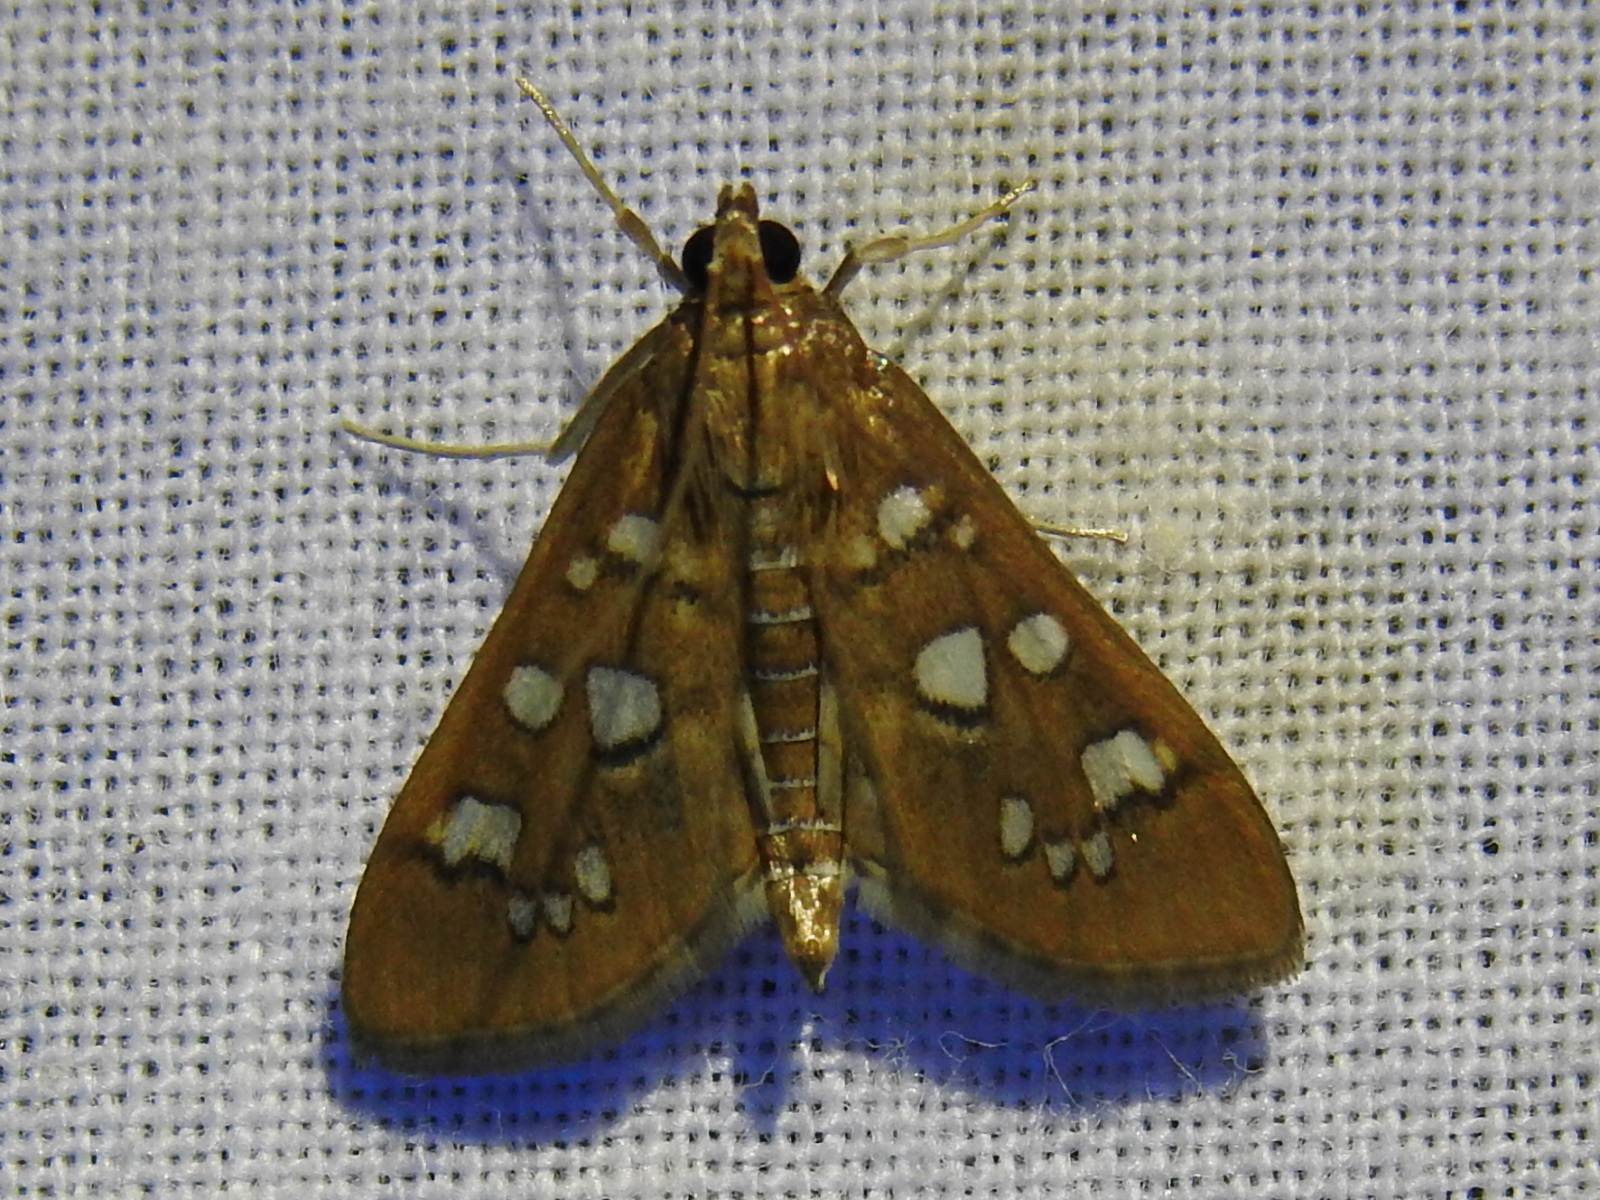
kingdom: Animalia
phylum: Arthropoda
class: Insecta
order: Lepidoptera
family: Crambidae
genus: Samea
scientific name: Samea baccatalis
